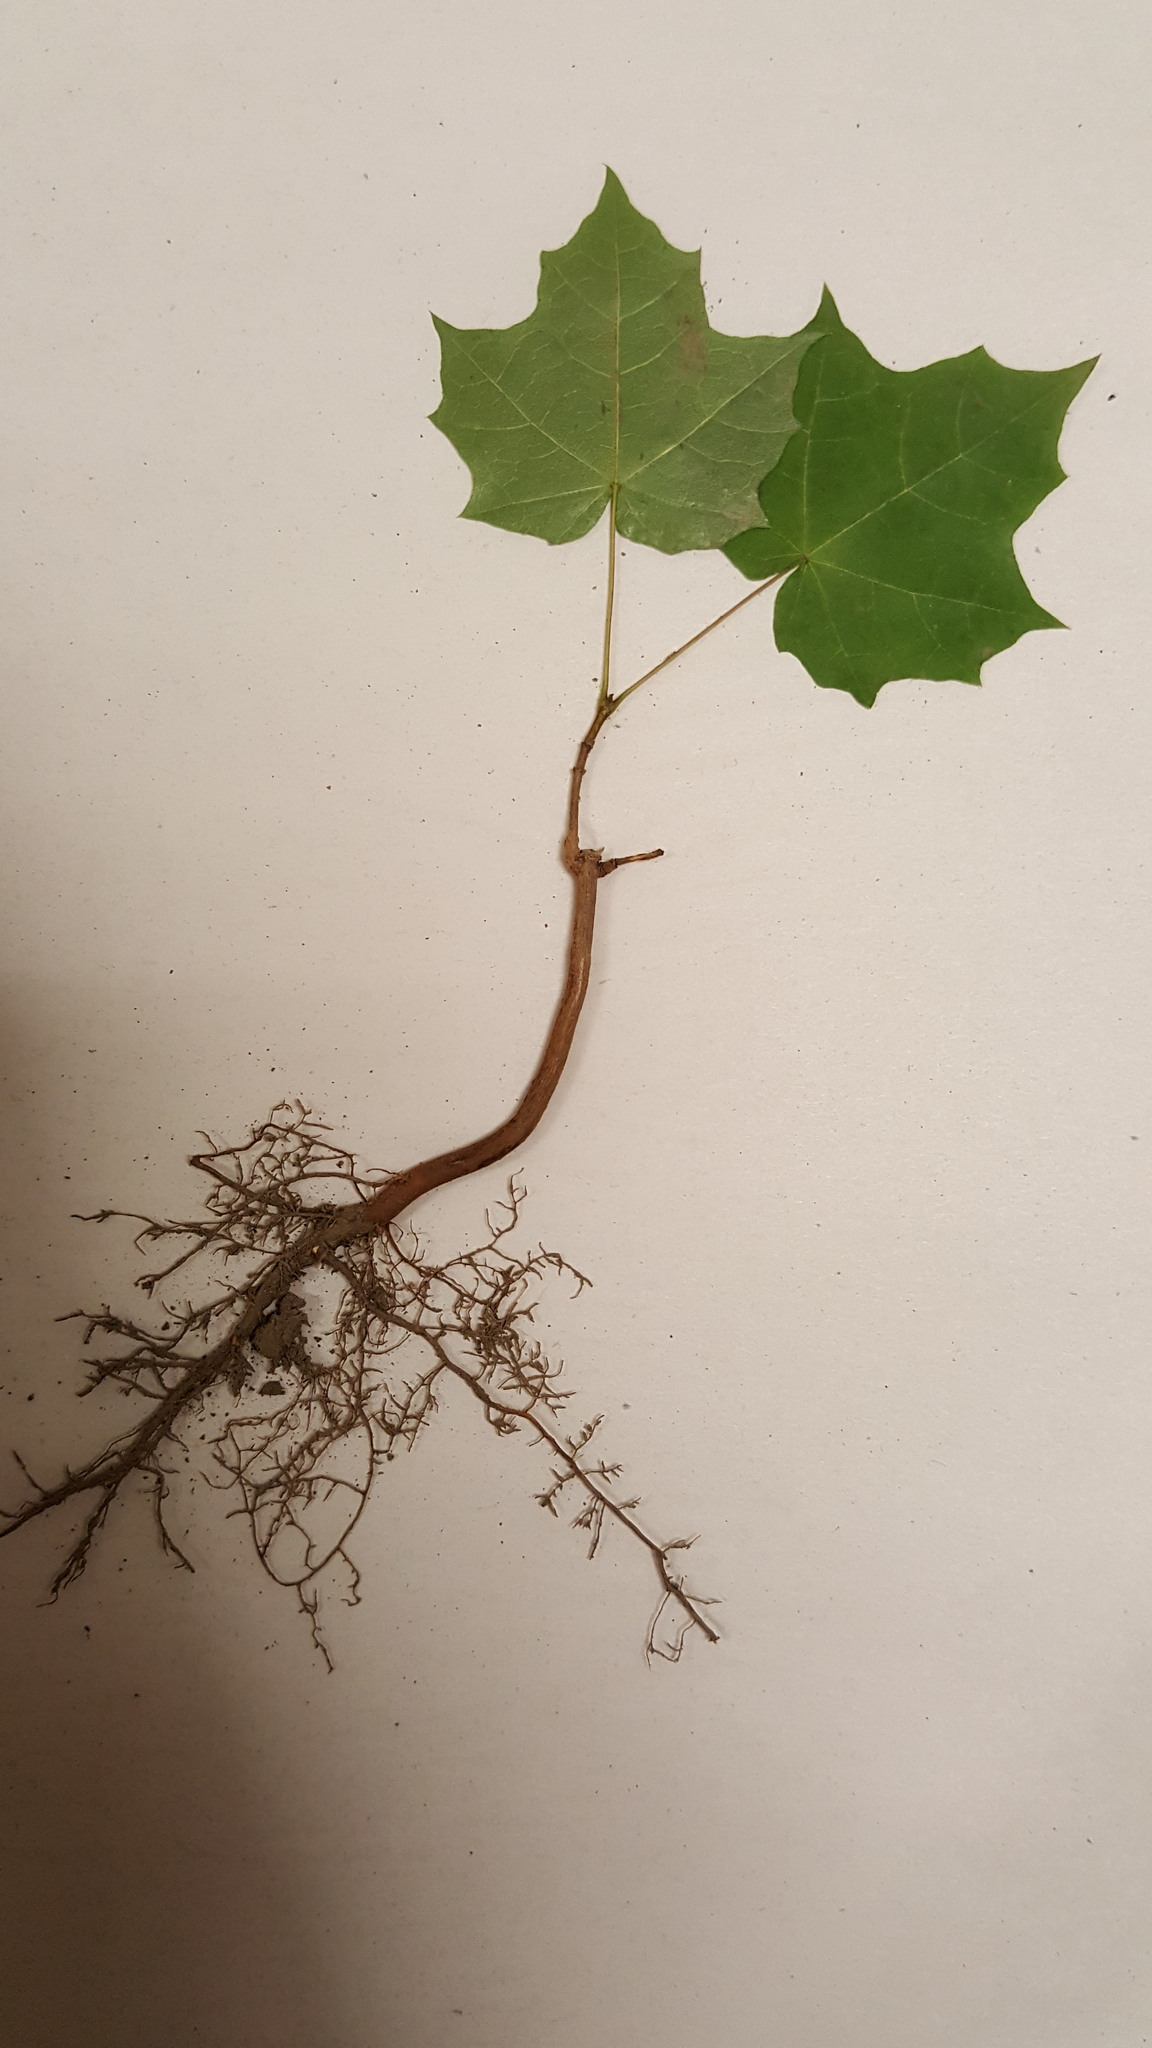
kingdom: Plantae
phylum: Tracheophyta
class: Magnoliopsida
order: Sapindales
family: Sapindaceae
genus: Acer
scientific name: Acer saccharum
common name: Sugar maple
